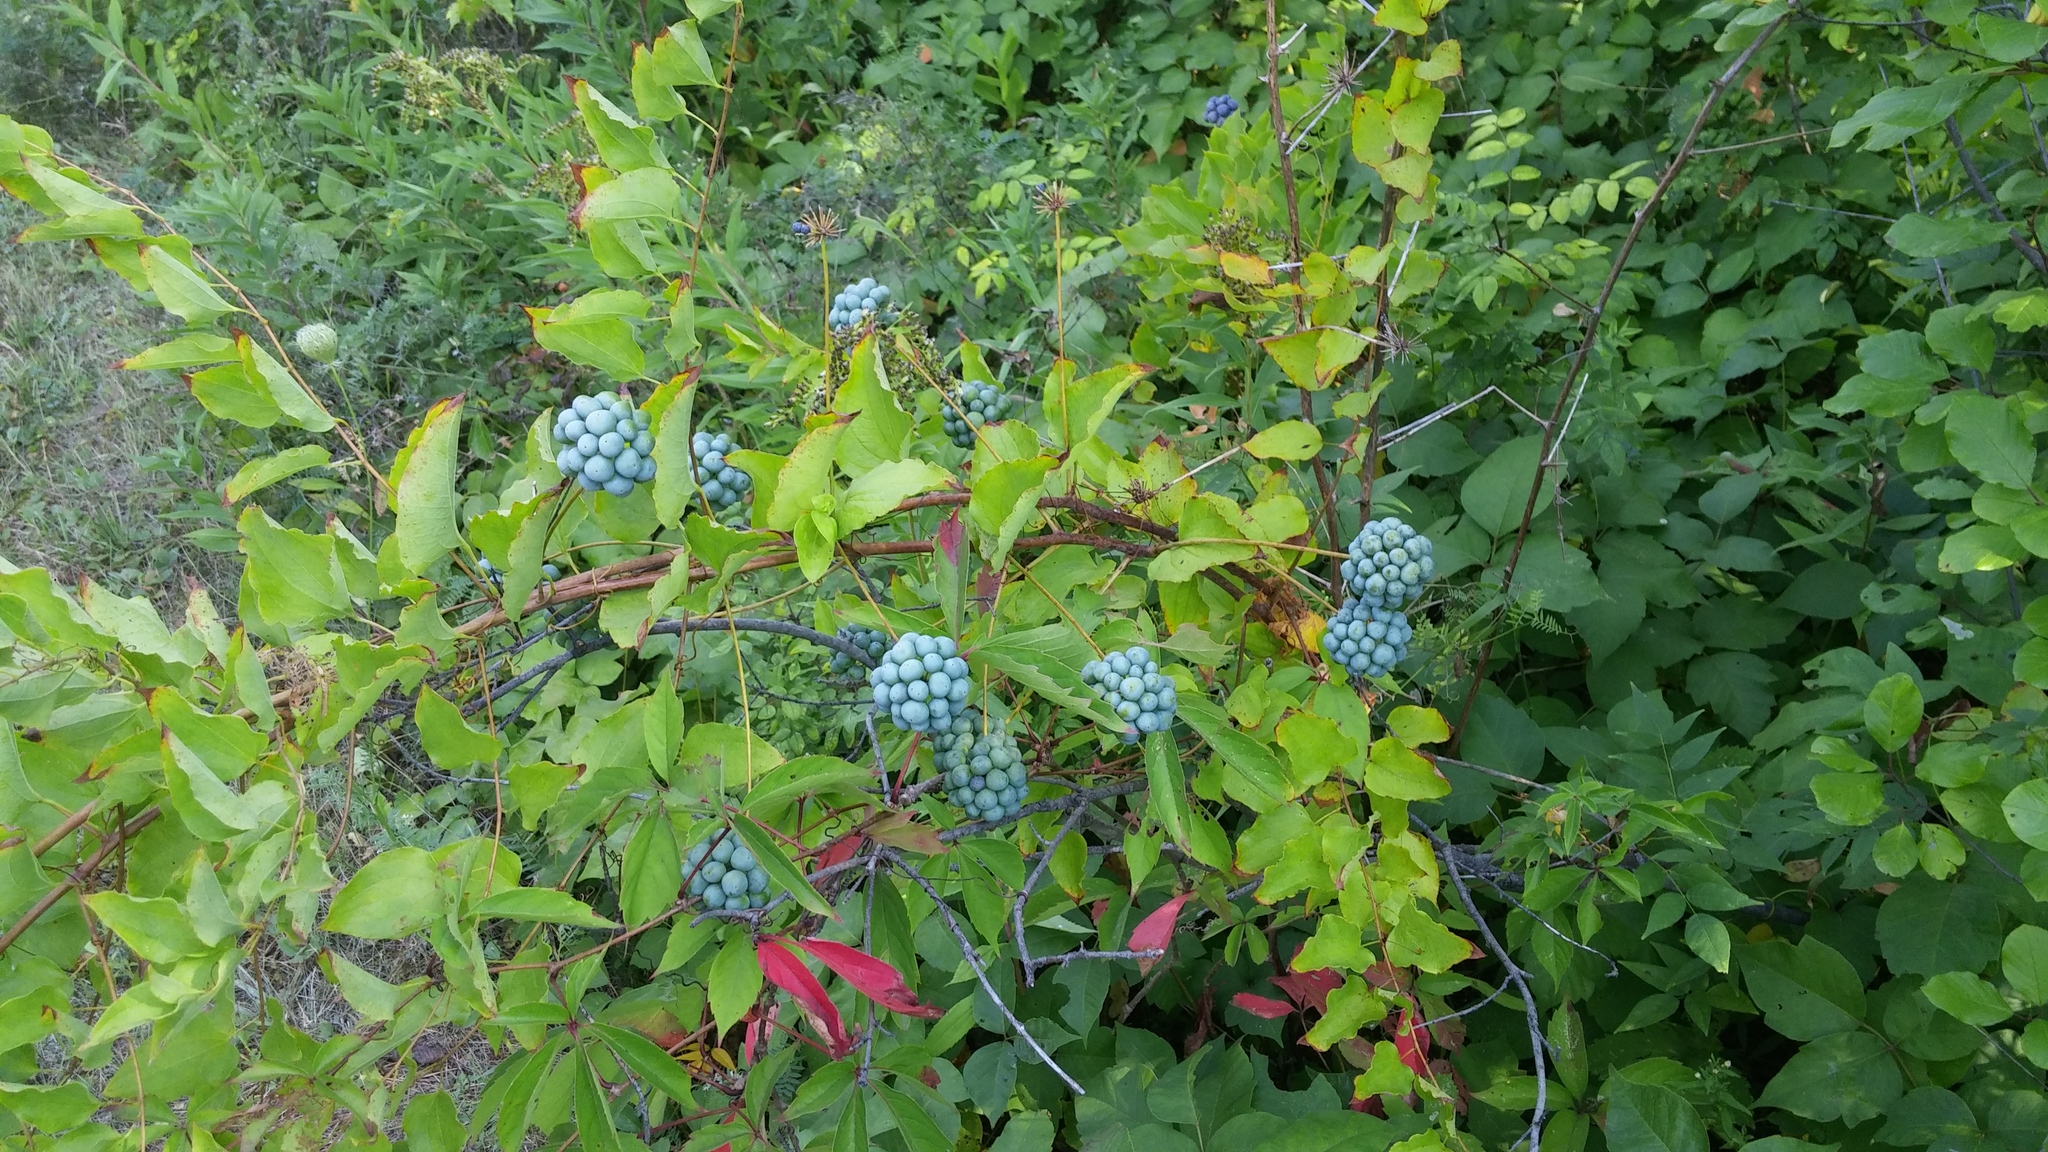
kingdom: Plantae
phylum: Tracheophyta
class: Liliopsida
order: Liliales
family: Smilacaceae
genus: Smilax
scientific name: Smilax herbacea
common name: Jacob's-ladder
